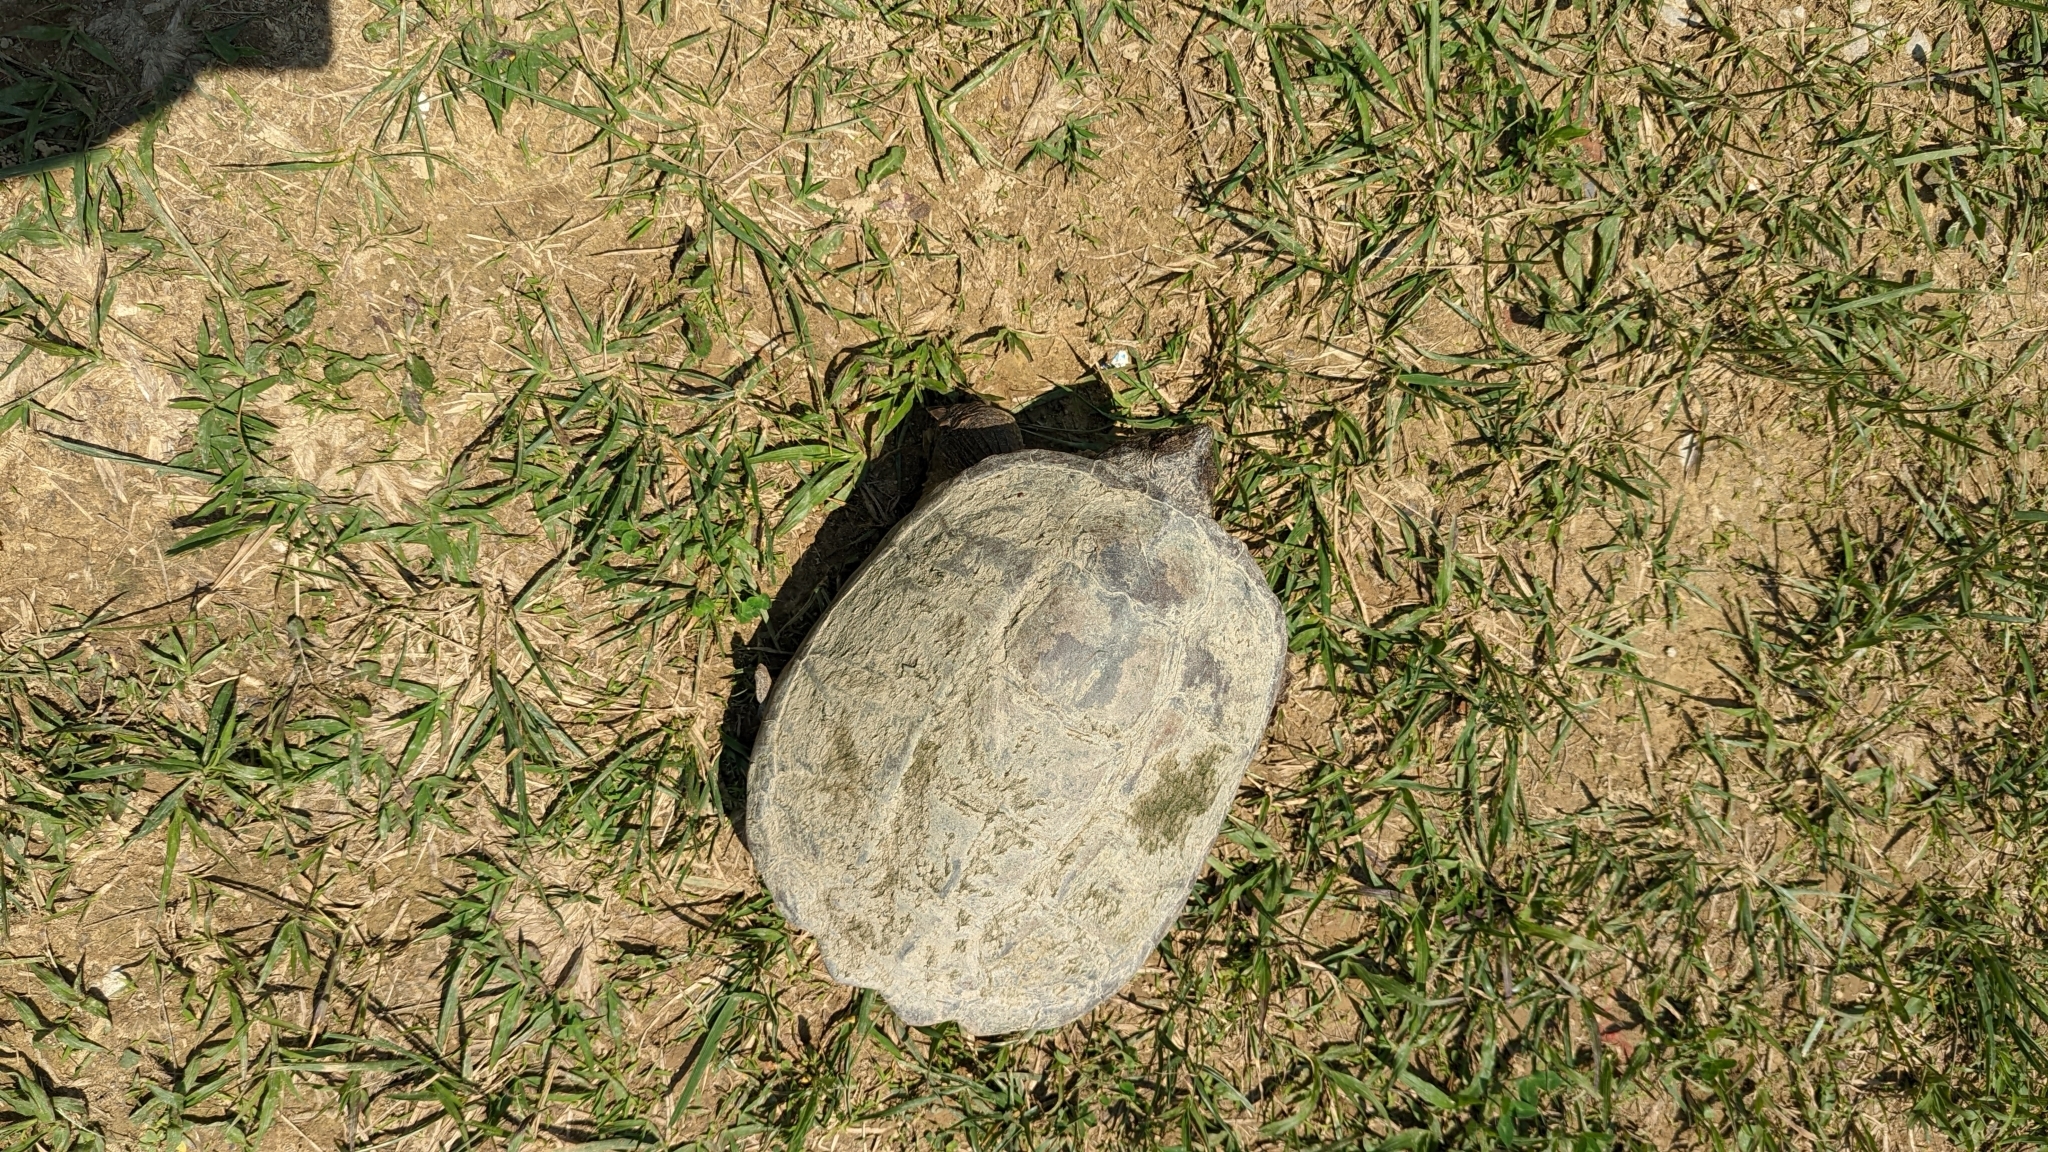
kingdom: Animalia
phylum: Chordata
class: Testudines
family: Chelydridae
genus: Chelydra
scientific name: Chelydra serpentina
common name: Common snapping turtle
